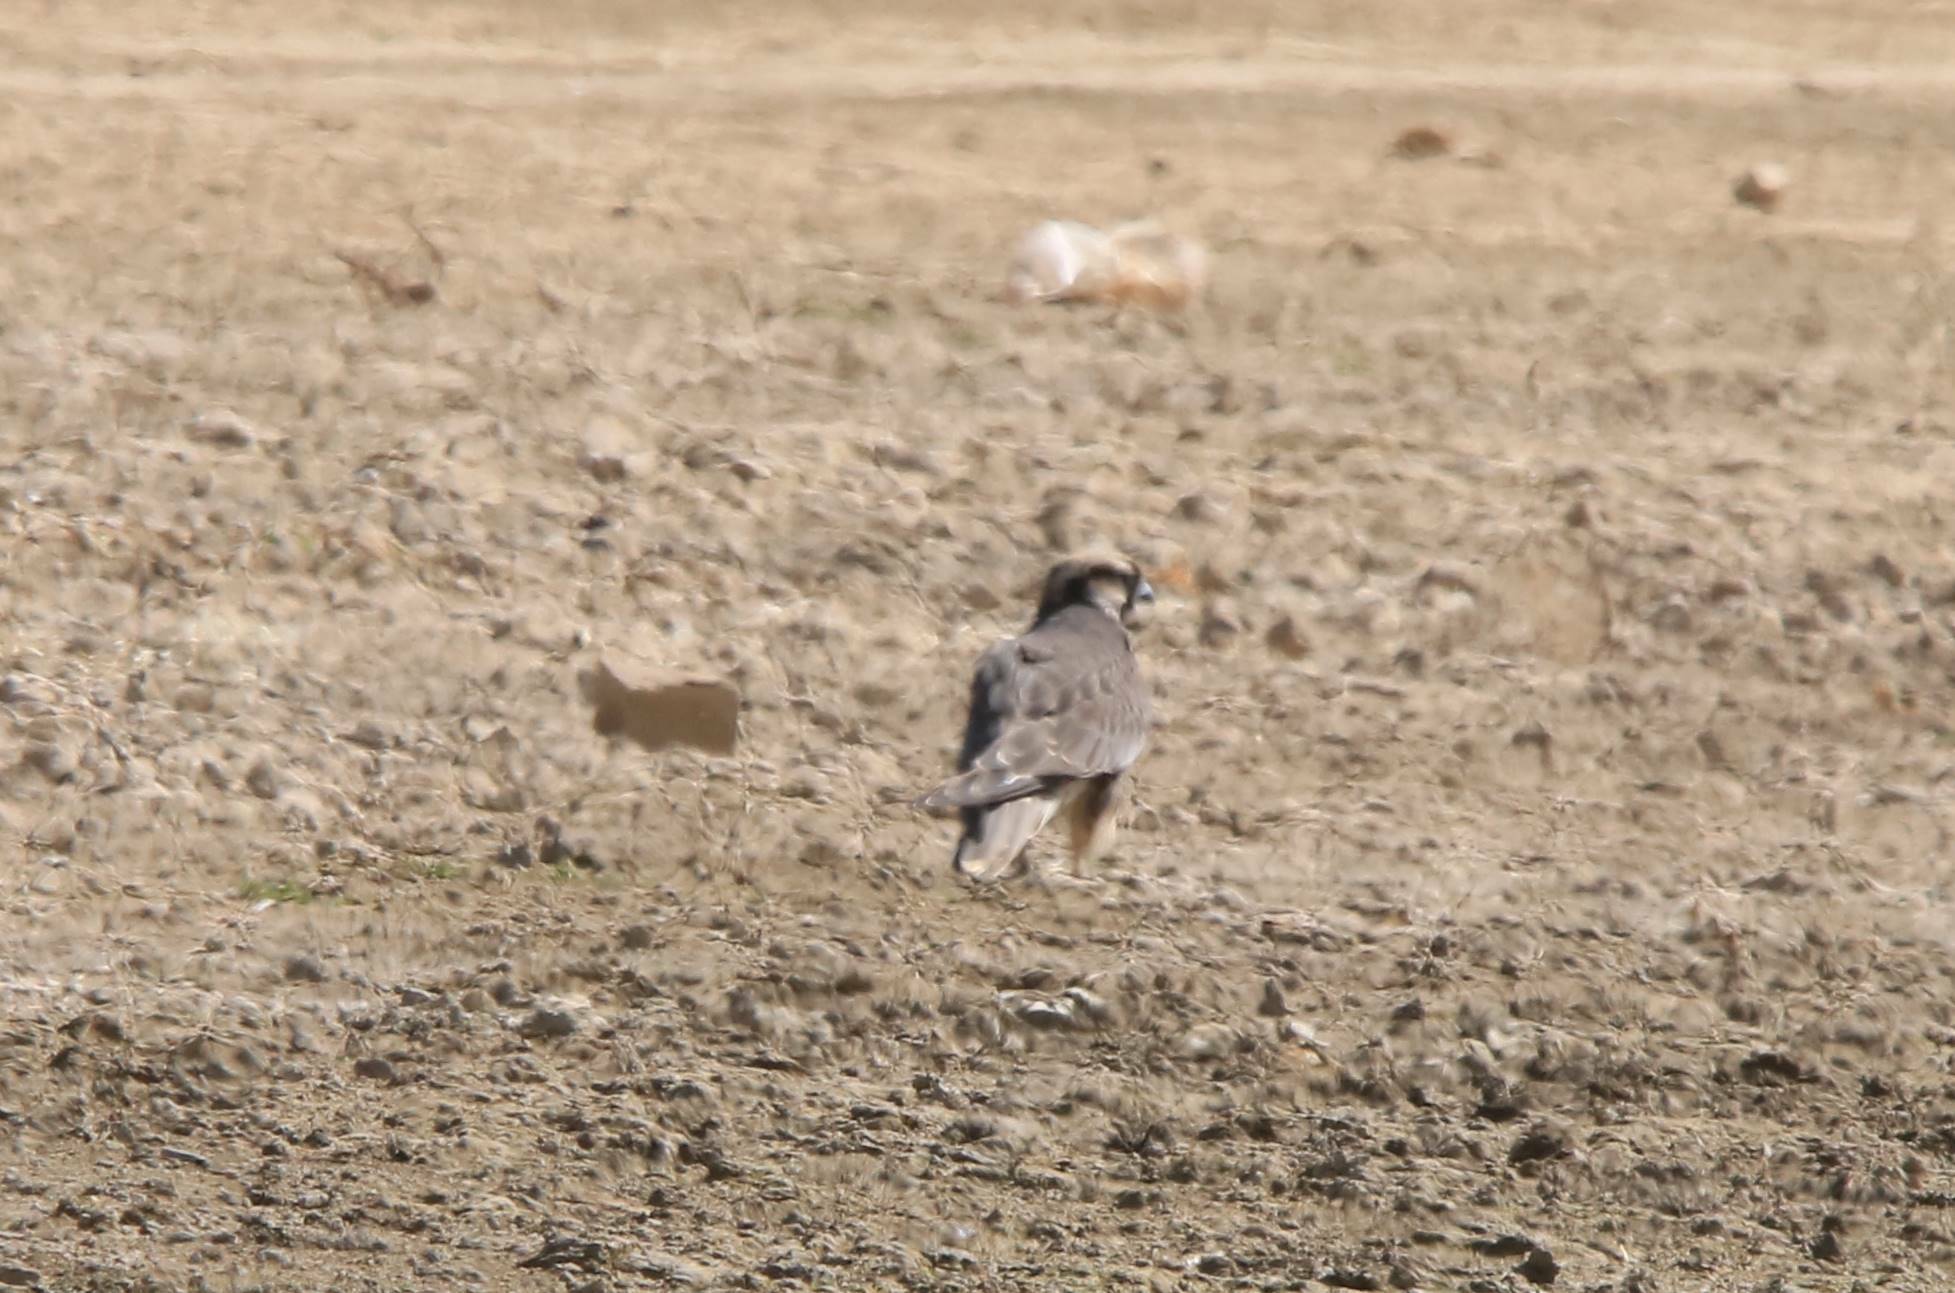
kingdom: Animalia
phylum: Chordata
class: Aves
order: Falconiformes
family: Falconidae
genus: Falco
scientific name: Falco biarmicus
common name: Lanner falcon
